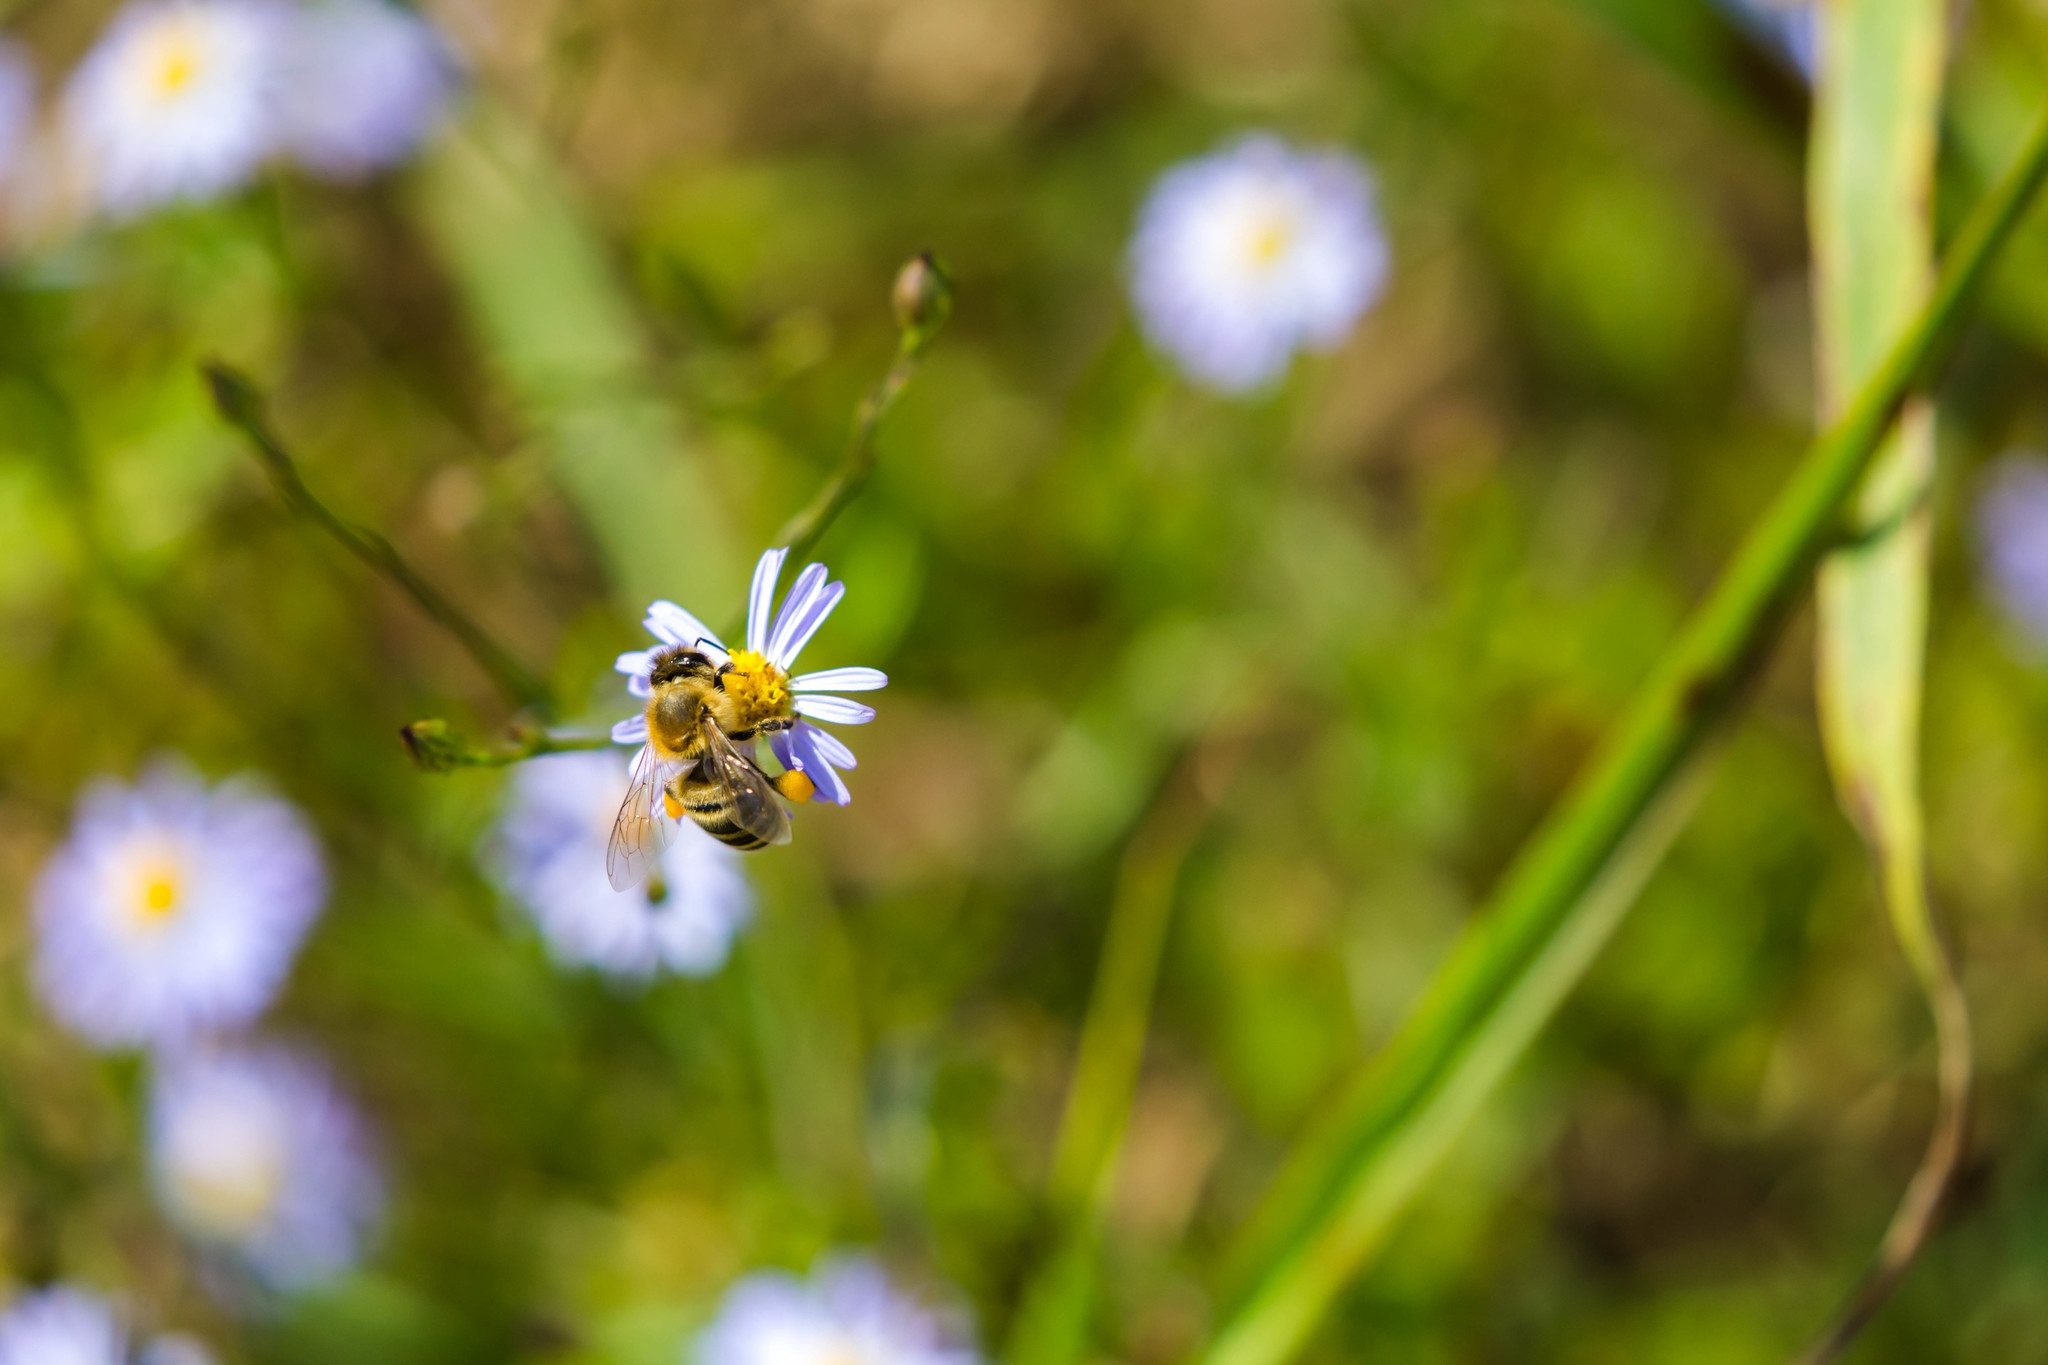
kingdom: Animalia
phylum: Arthropoda
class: Insecta
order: Hymenoptera
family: Apidae
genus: Apis
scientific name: Apis mellifera
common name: Honey bee
